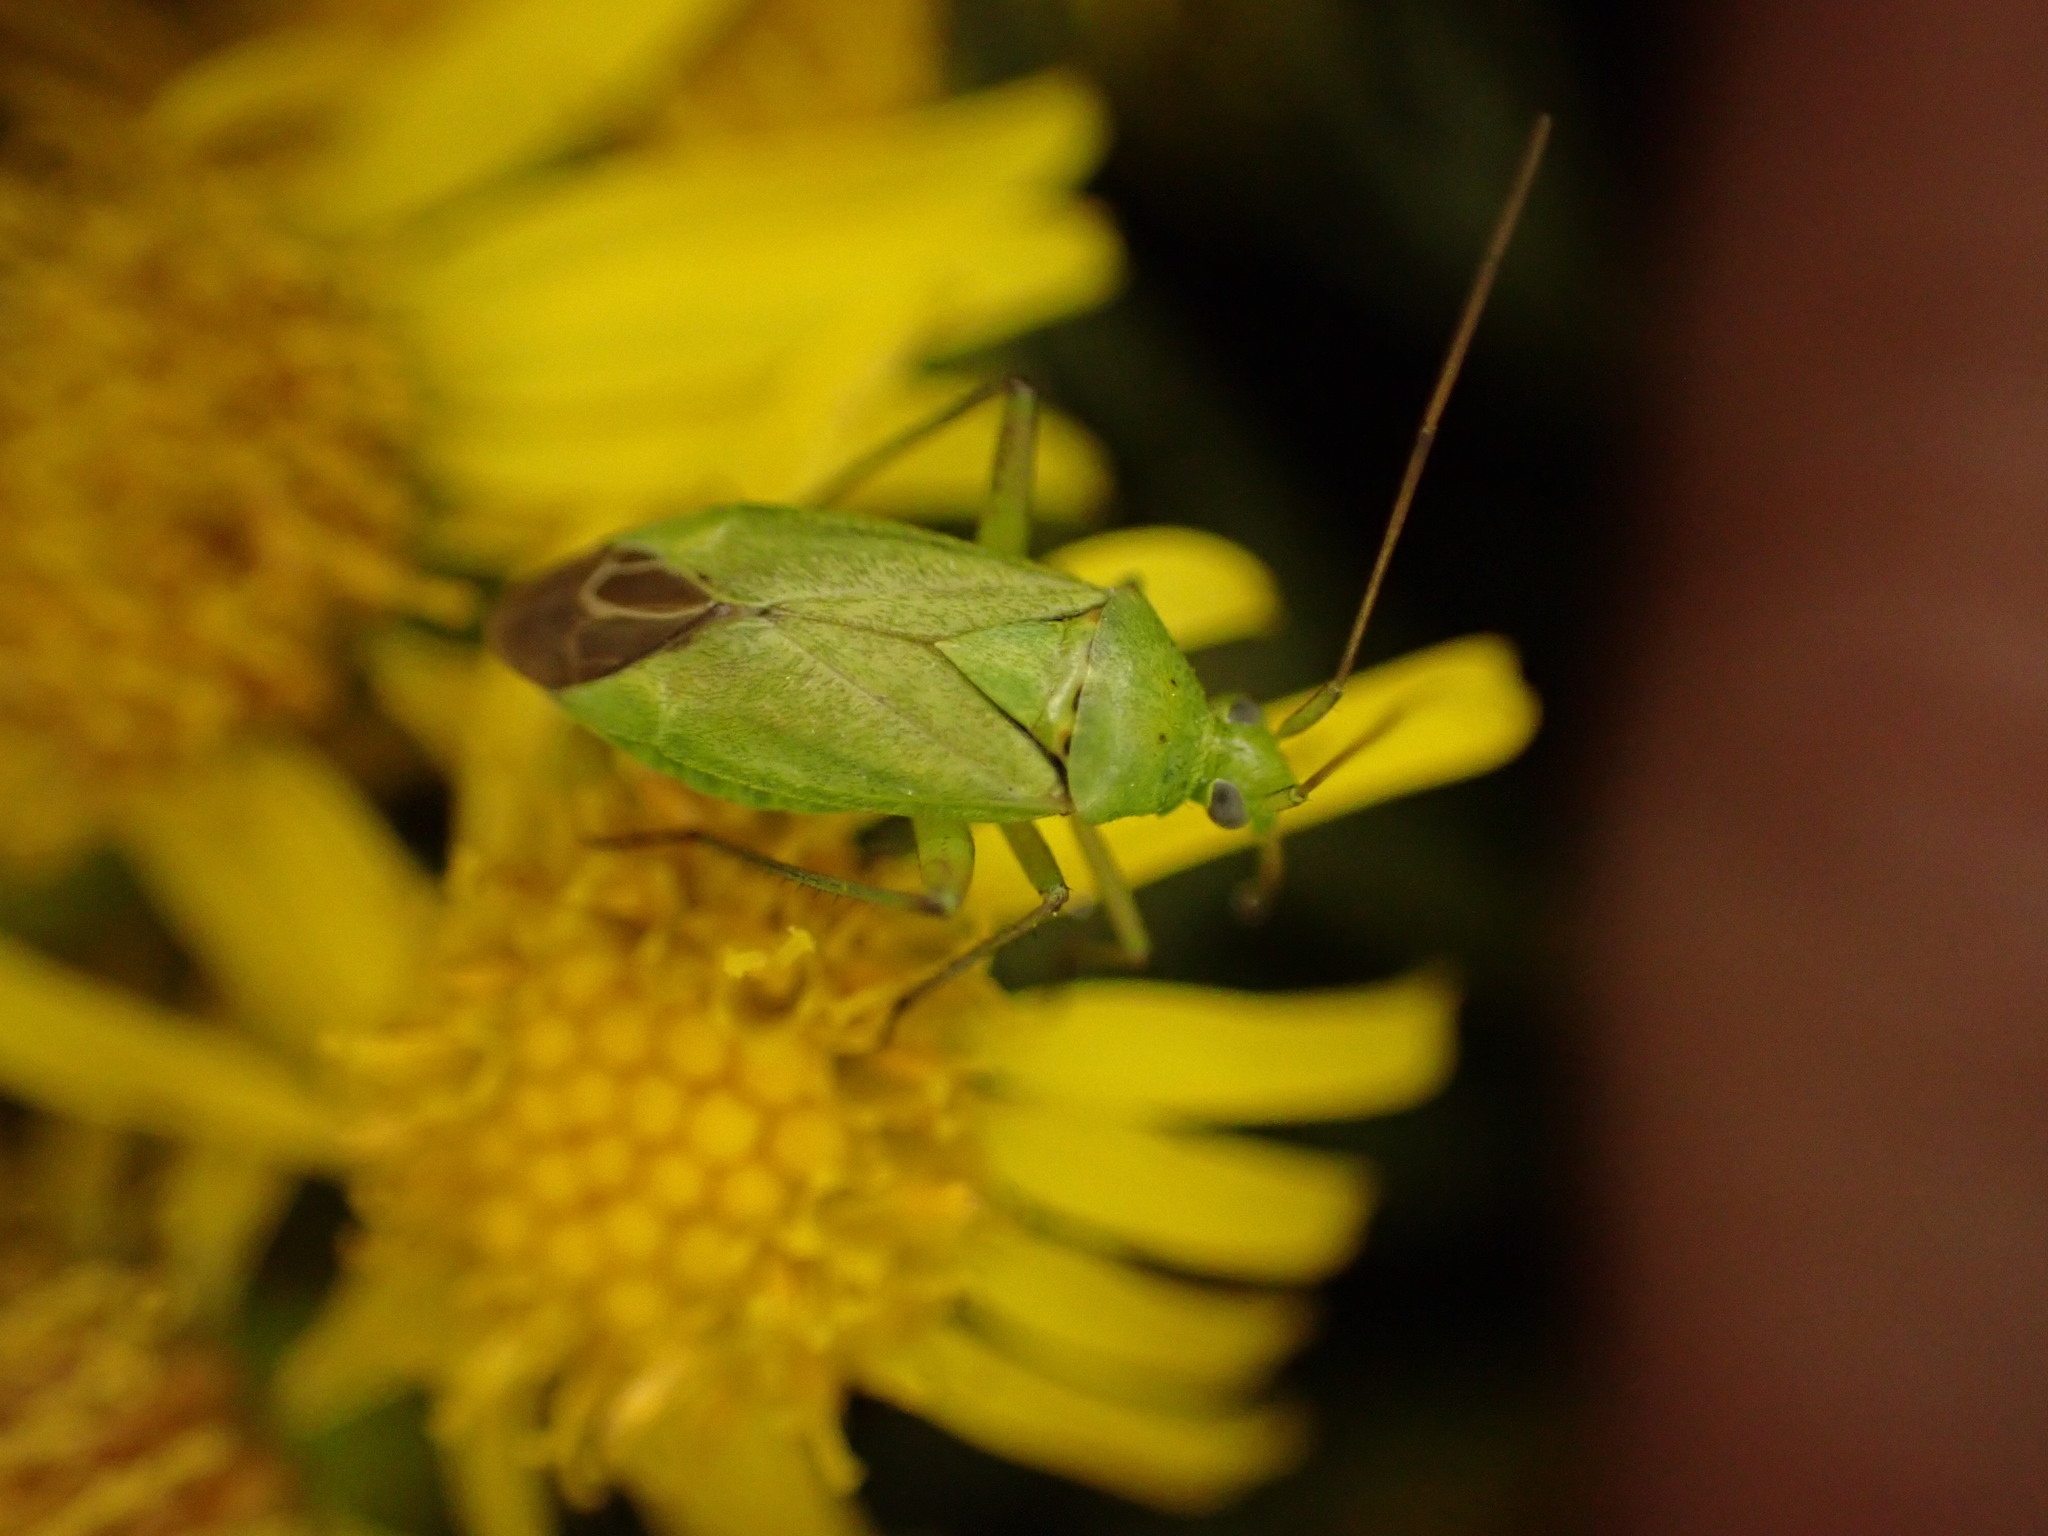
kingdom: Animalia
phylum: Arthropoda
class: Insecta
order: Hemiptera
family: Miridae
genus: Closterotomus
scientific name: Closterotomus norvegicus
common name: Plant bug
